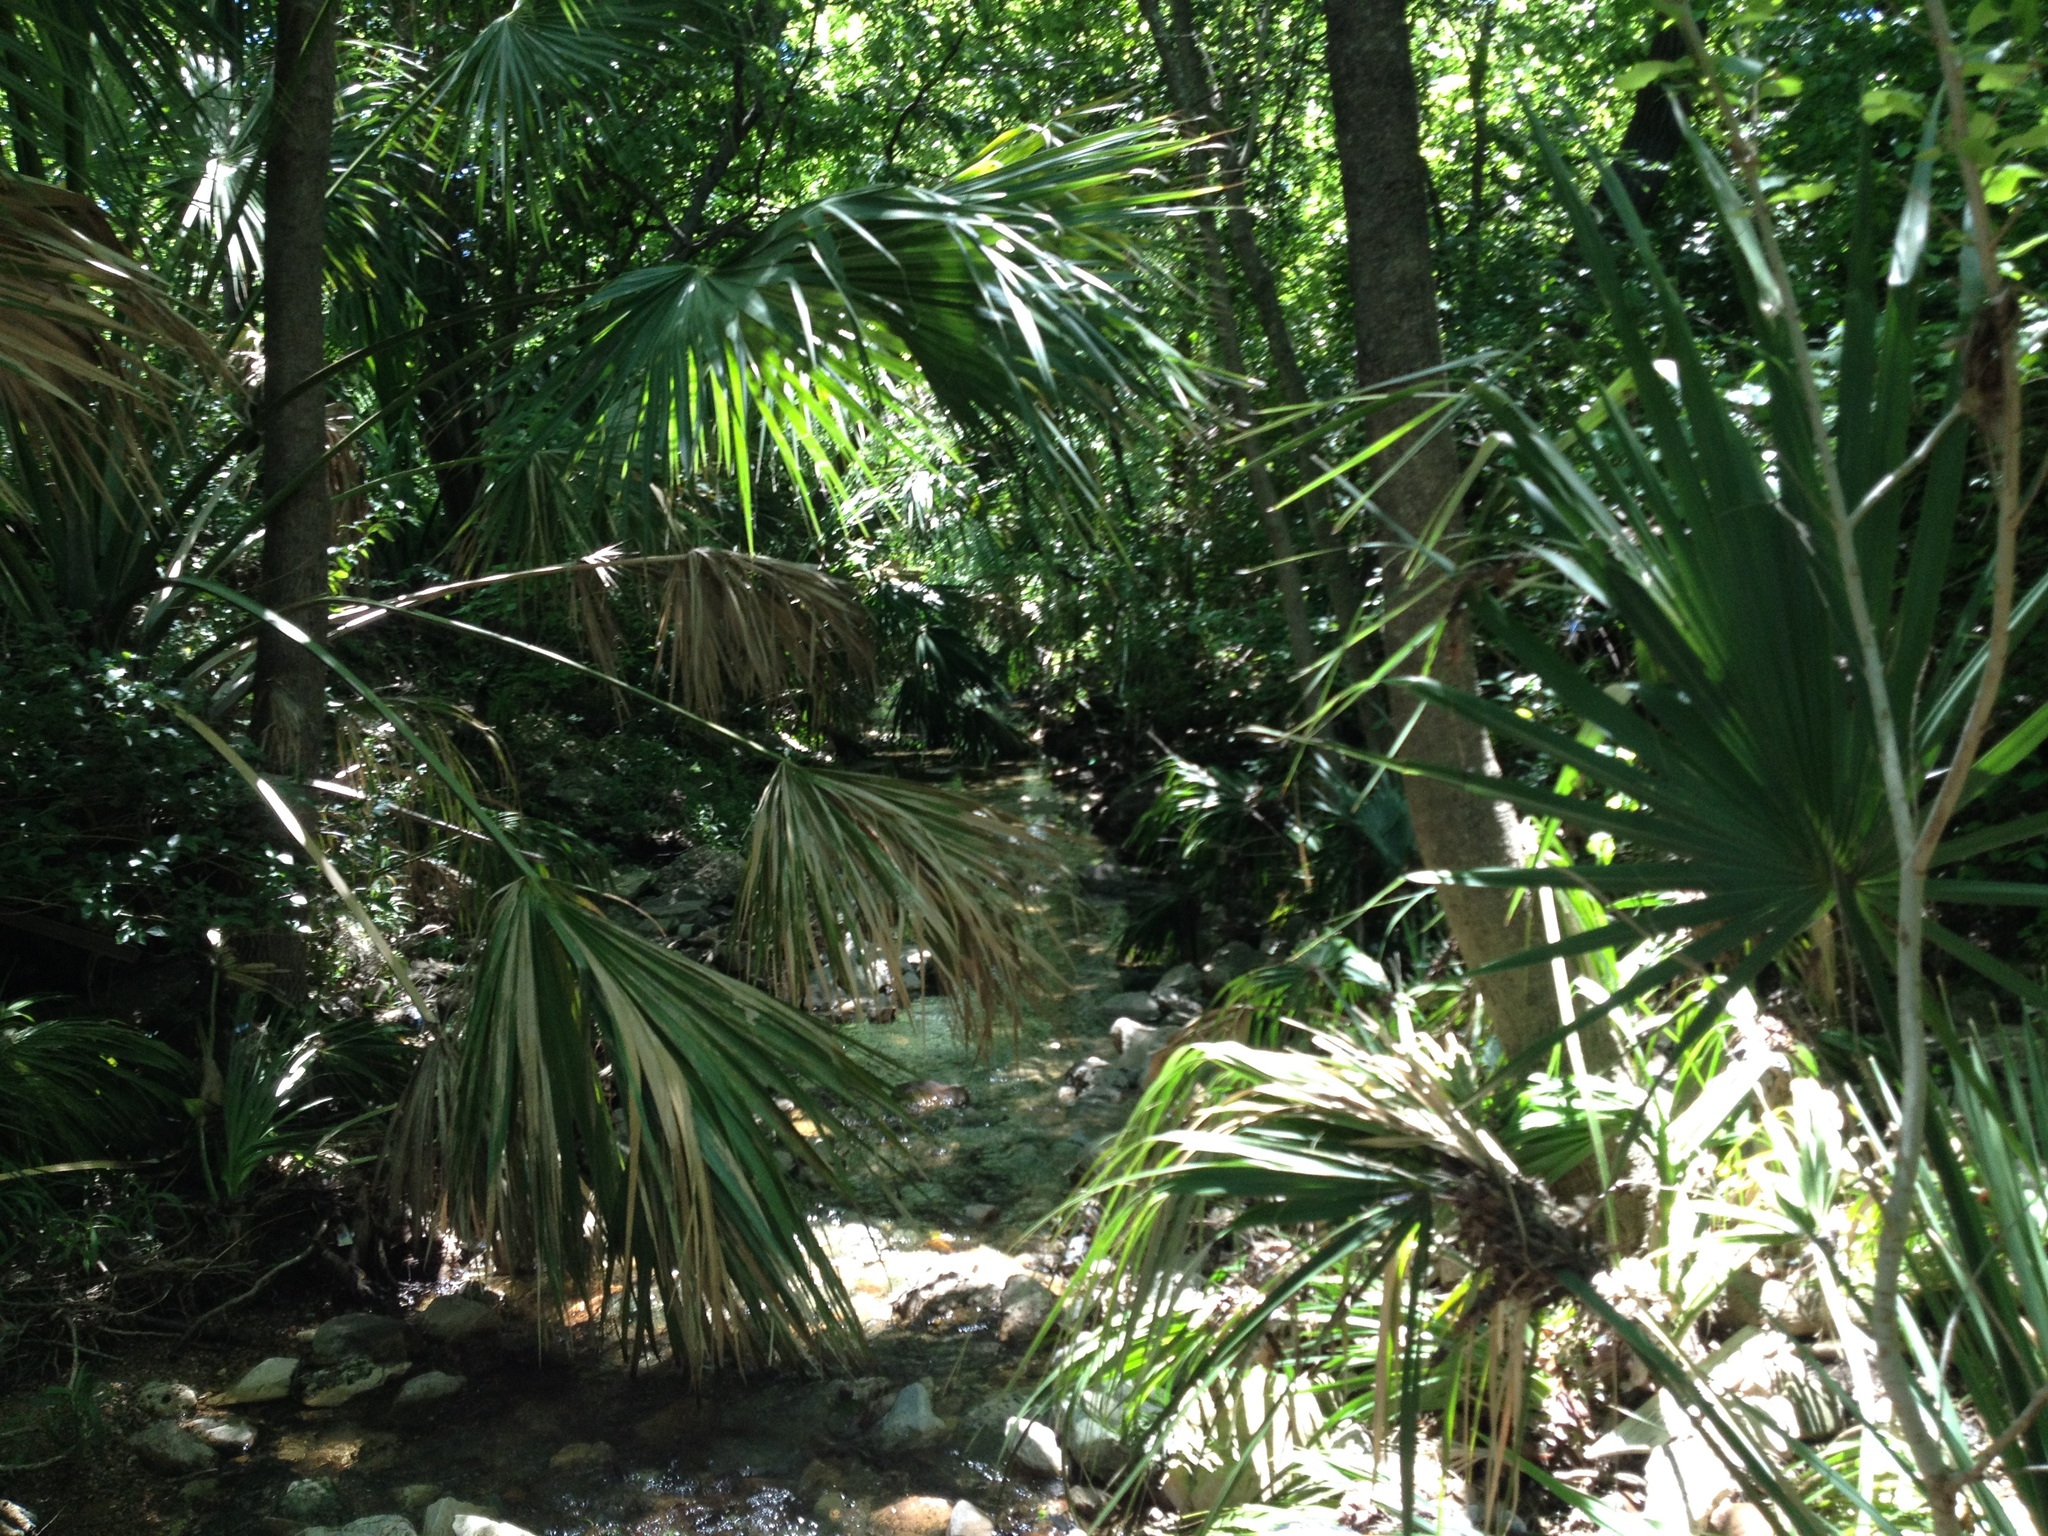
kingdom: Plantae
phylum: Tracheophyta
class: Liliopsida
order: Arecales
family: Arecaceae
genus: Sabal
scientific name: Sabal mexicana
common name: Texas palmetto
